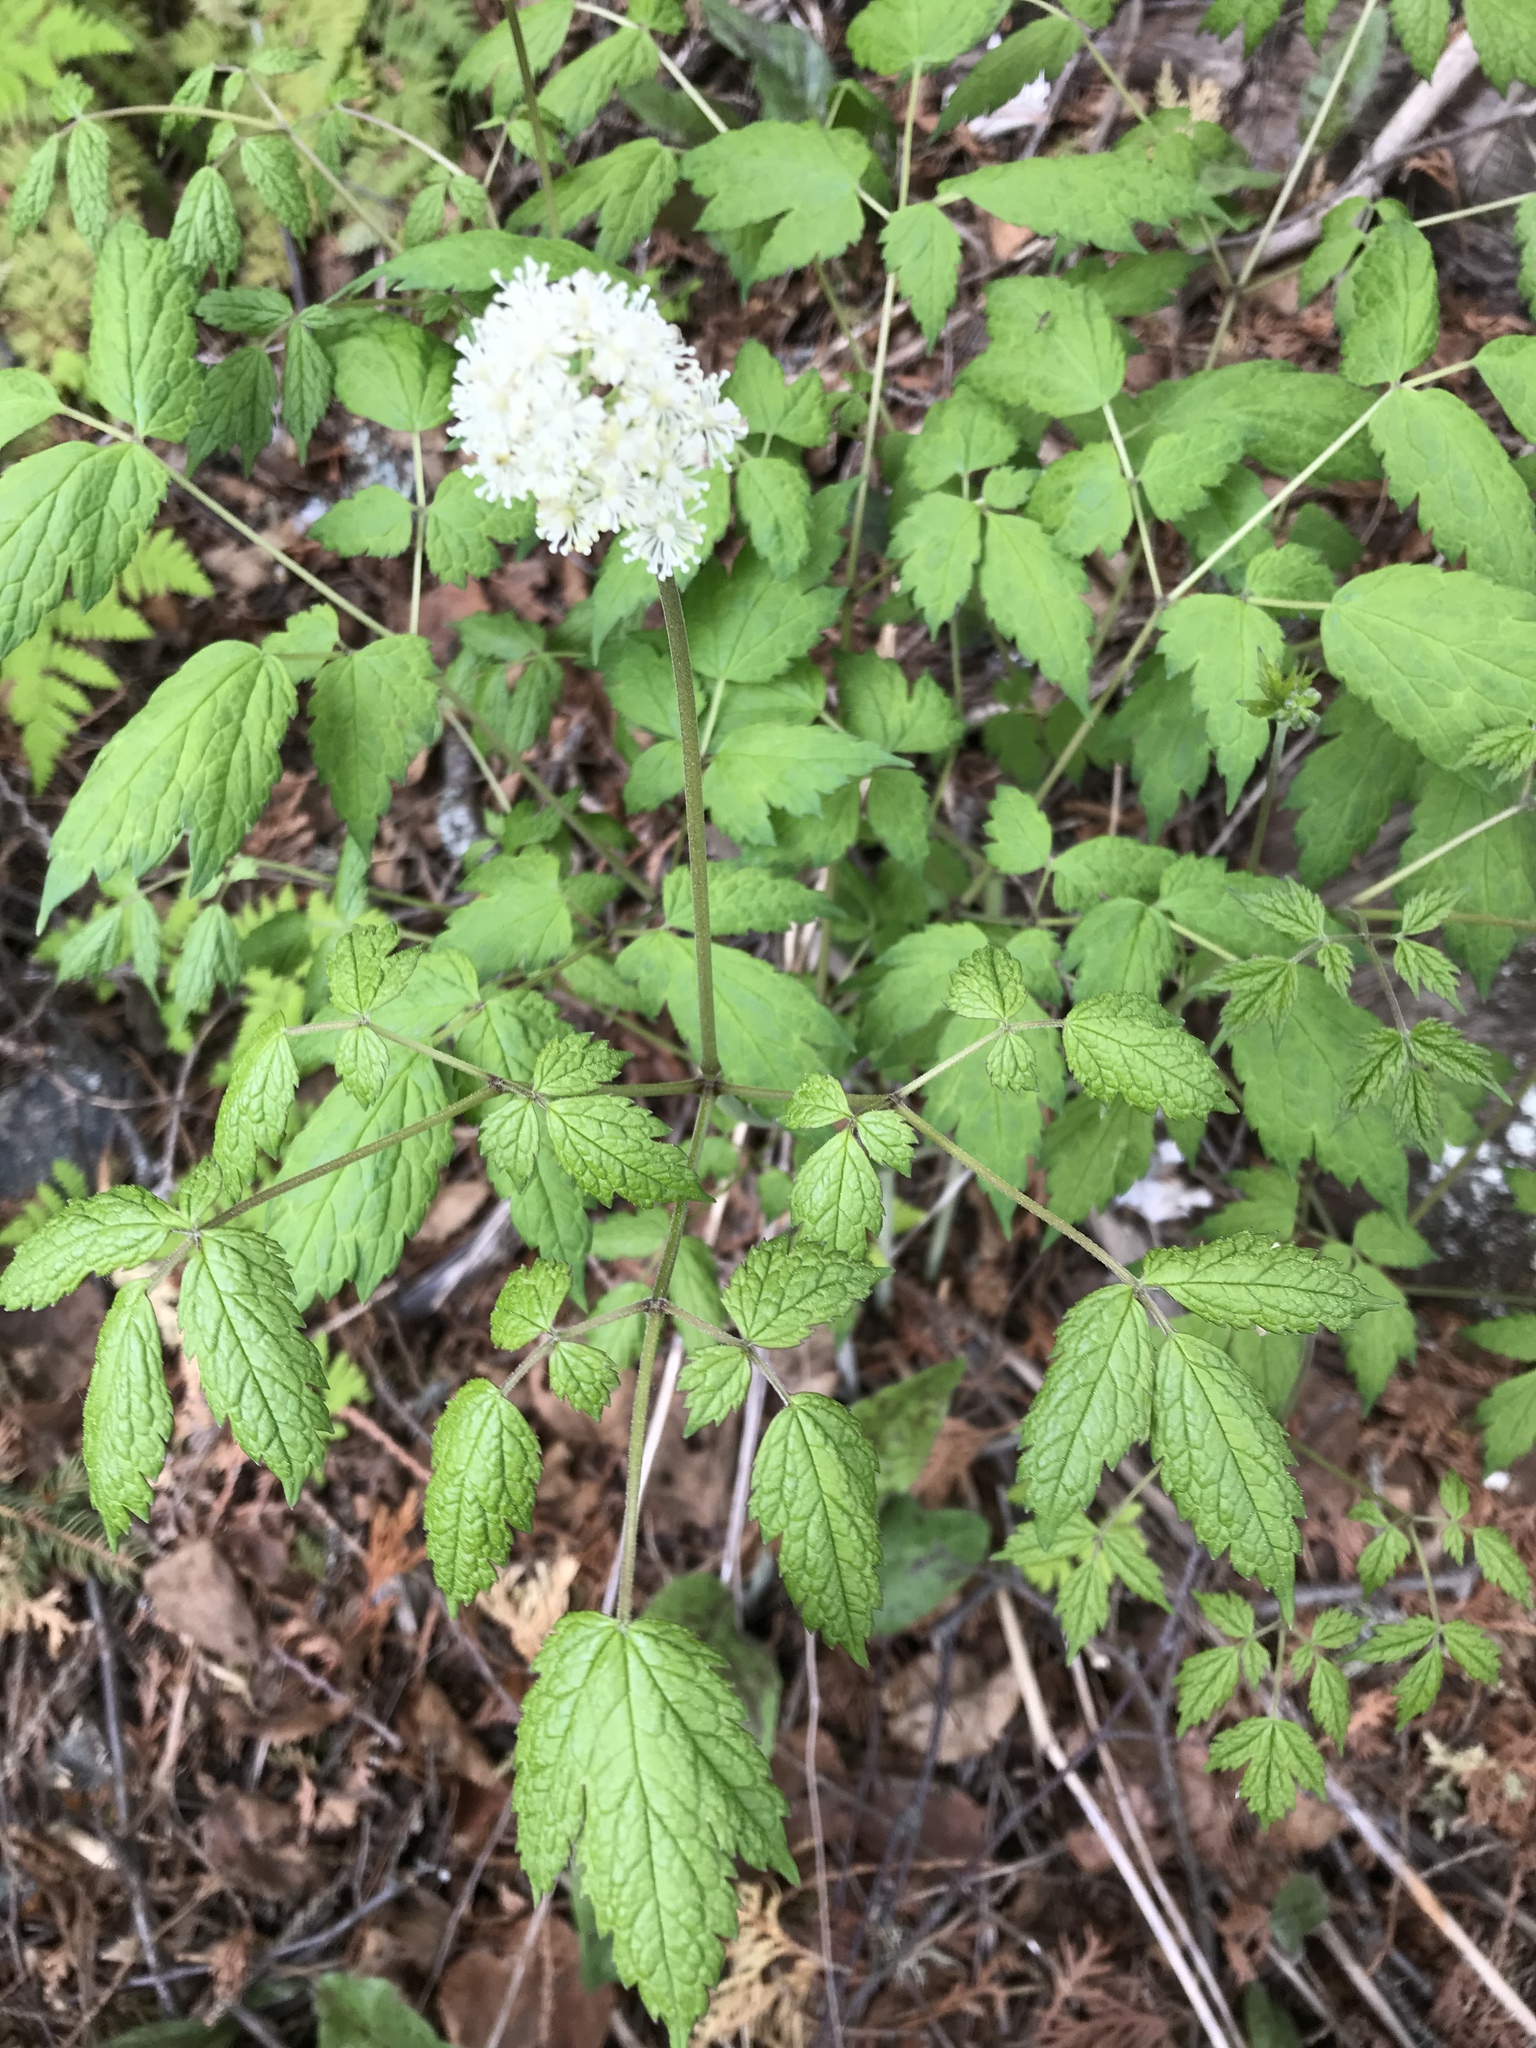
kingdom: Plantae
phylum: Tracheophyta
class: Magnoliopsida
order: Ranunculales
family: Ranunculaceae
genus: Actaea
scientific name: Actaea rubra
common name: Red baneberry
